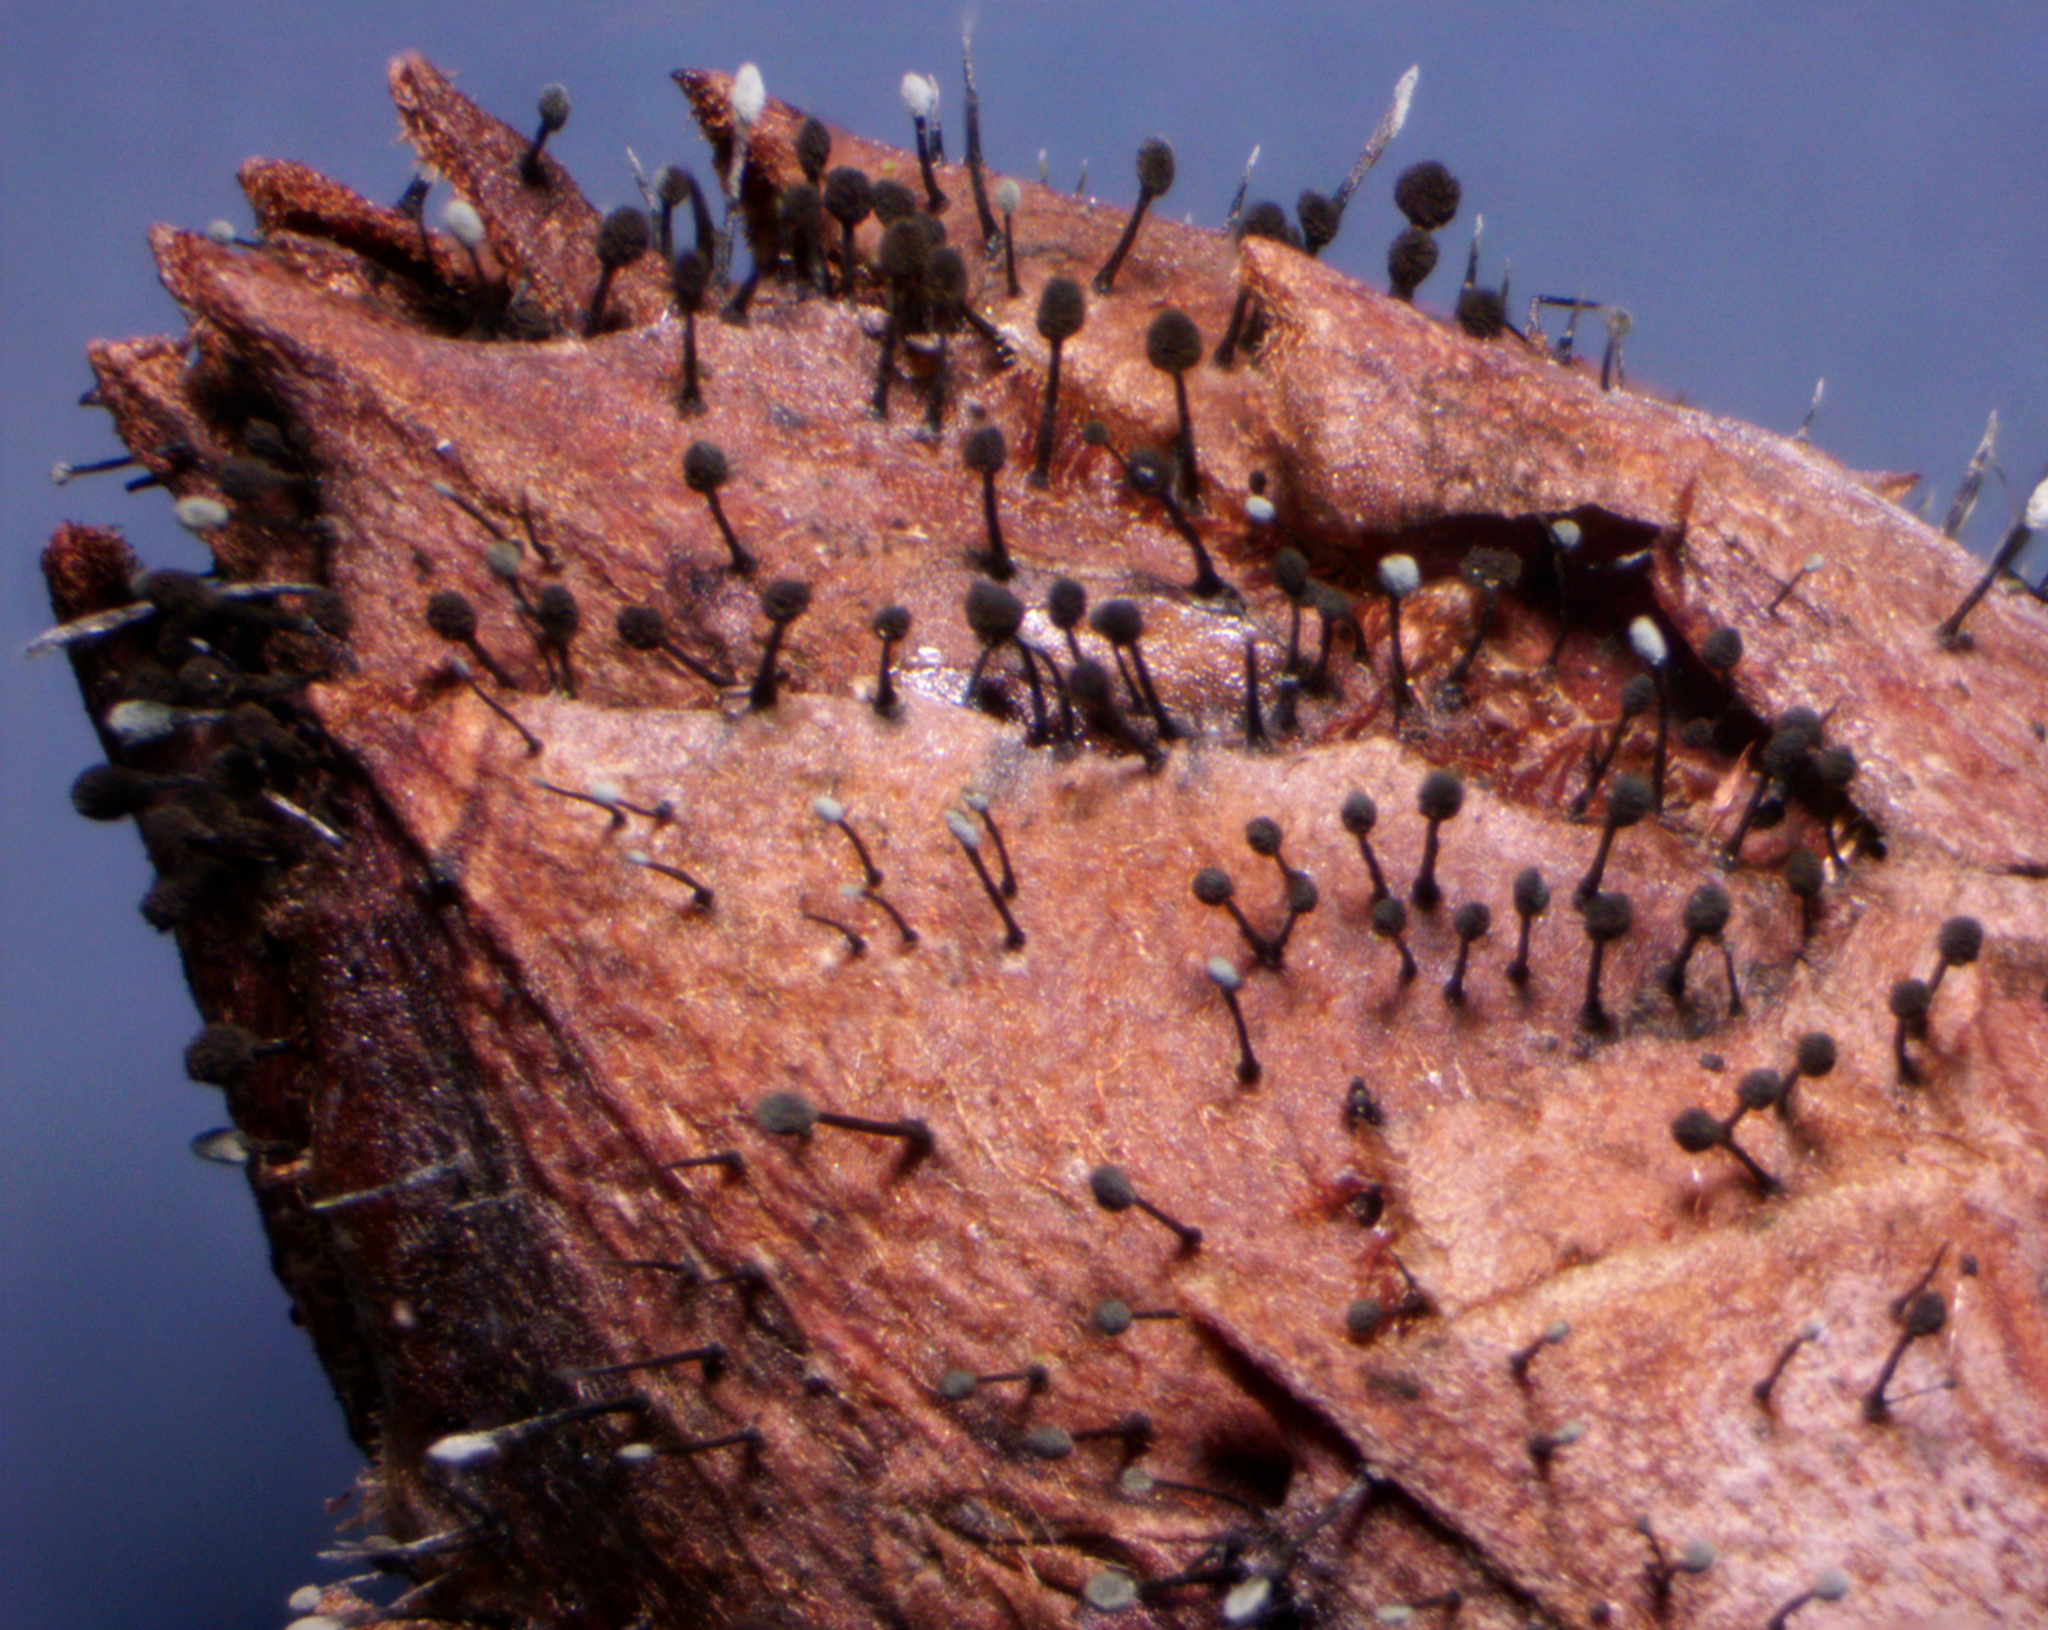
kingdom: Fungi
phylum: Ascomycota
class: Dothideomycetes
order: Pleosporales
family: Melanommataceae
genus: Seifertia
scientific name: Seifertia azaleae
